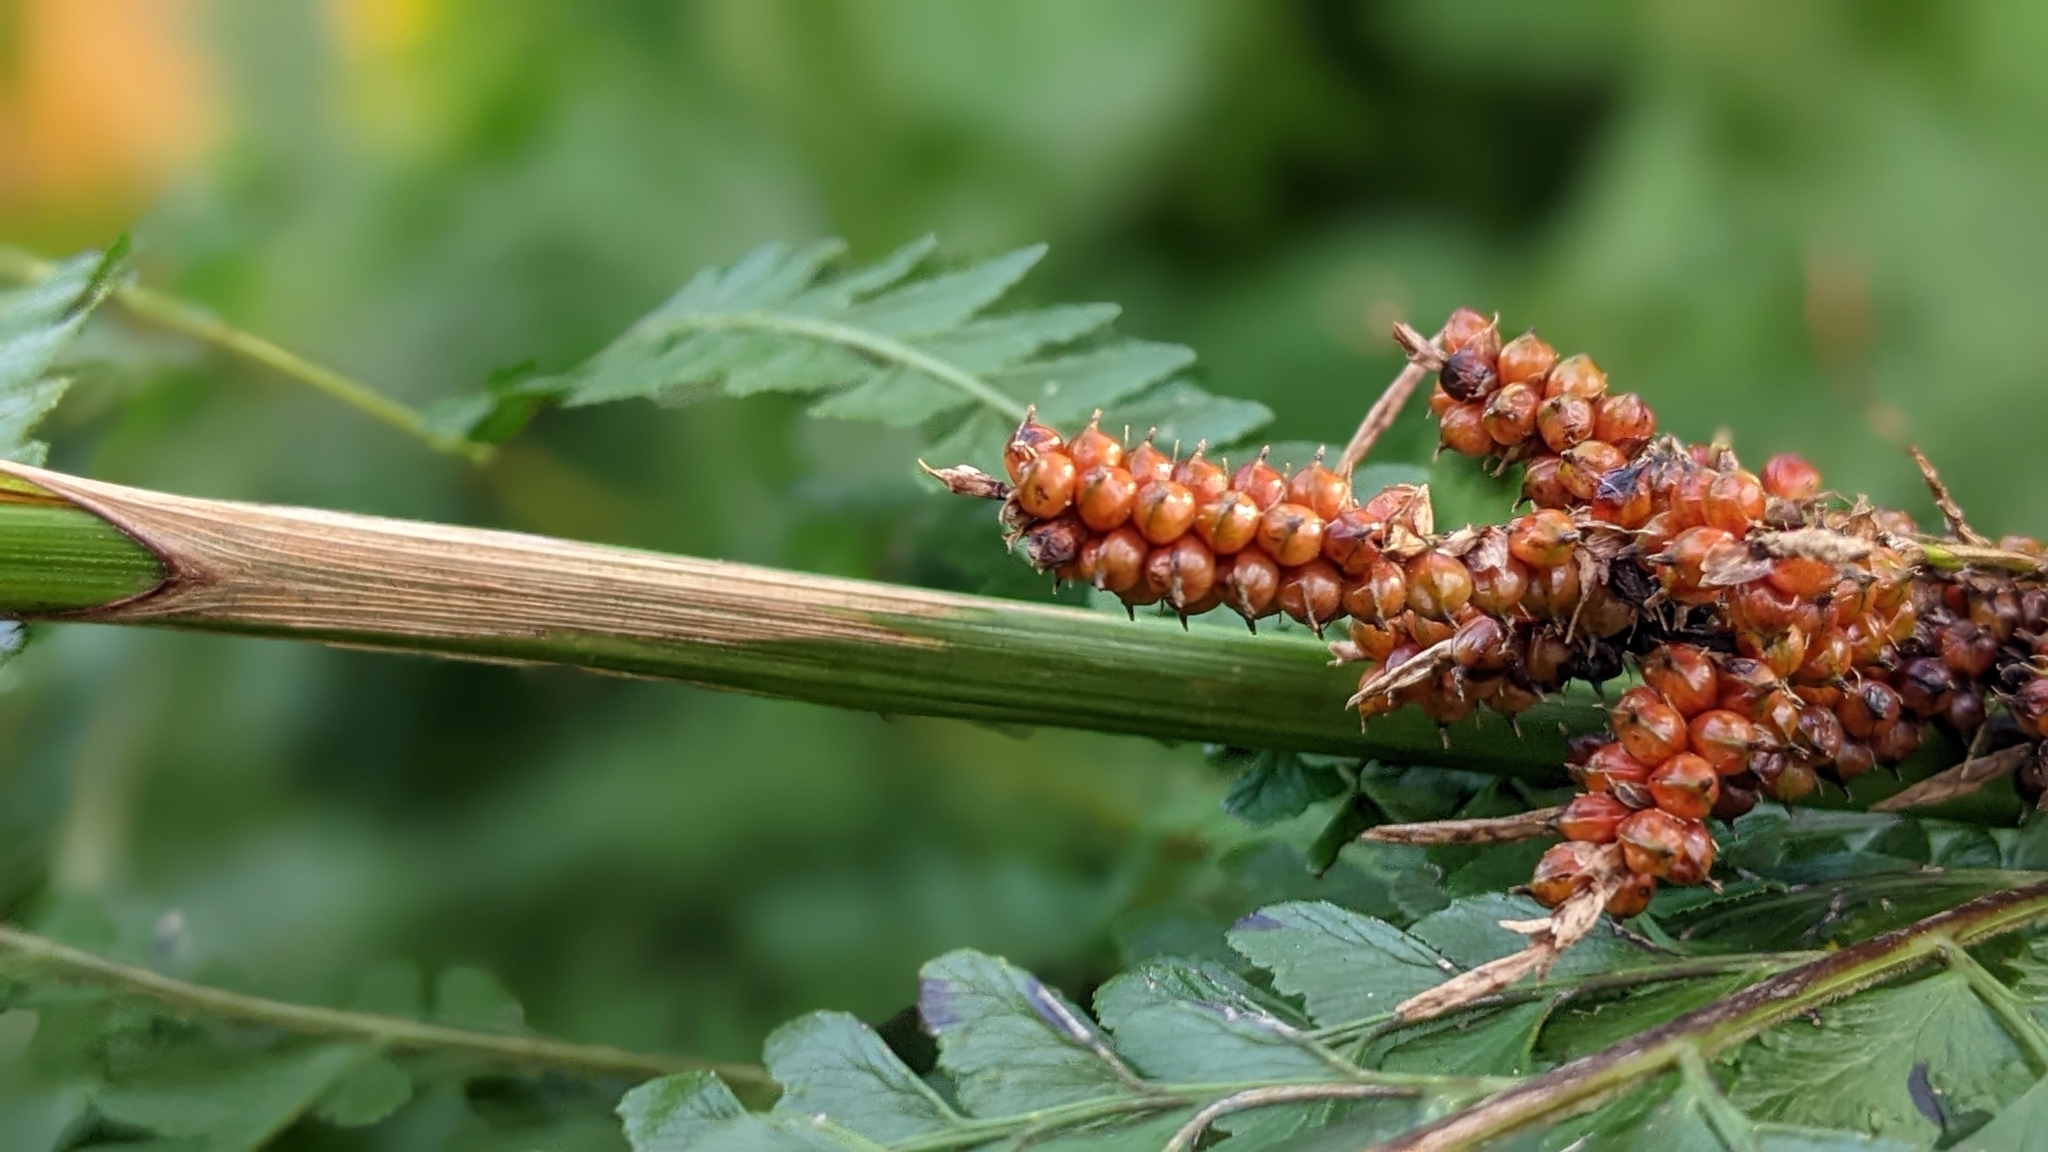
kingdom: Plantae
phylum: Tracheophyta
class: Liliopsida
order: Poales
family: Cyperaceae
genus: Carex
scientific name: Carex baccans
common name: Crimson seeded sedge
